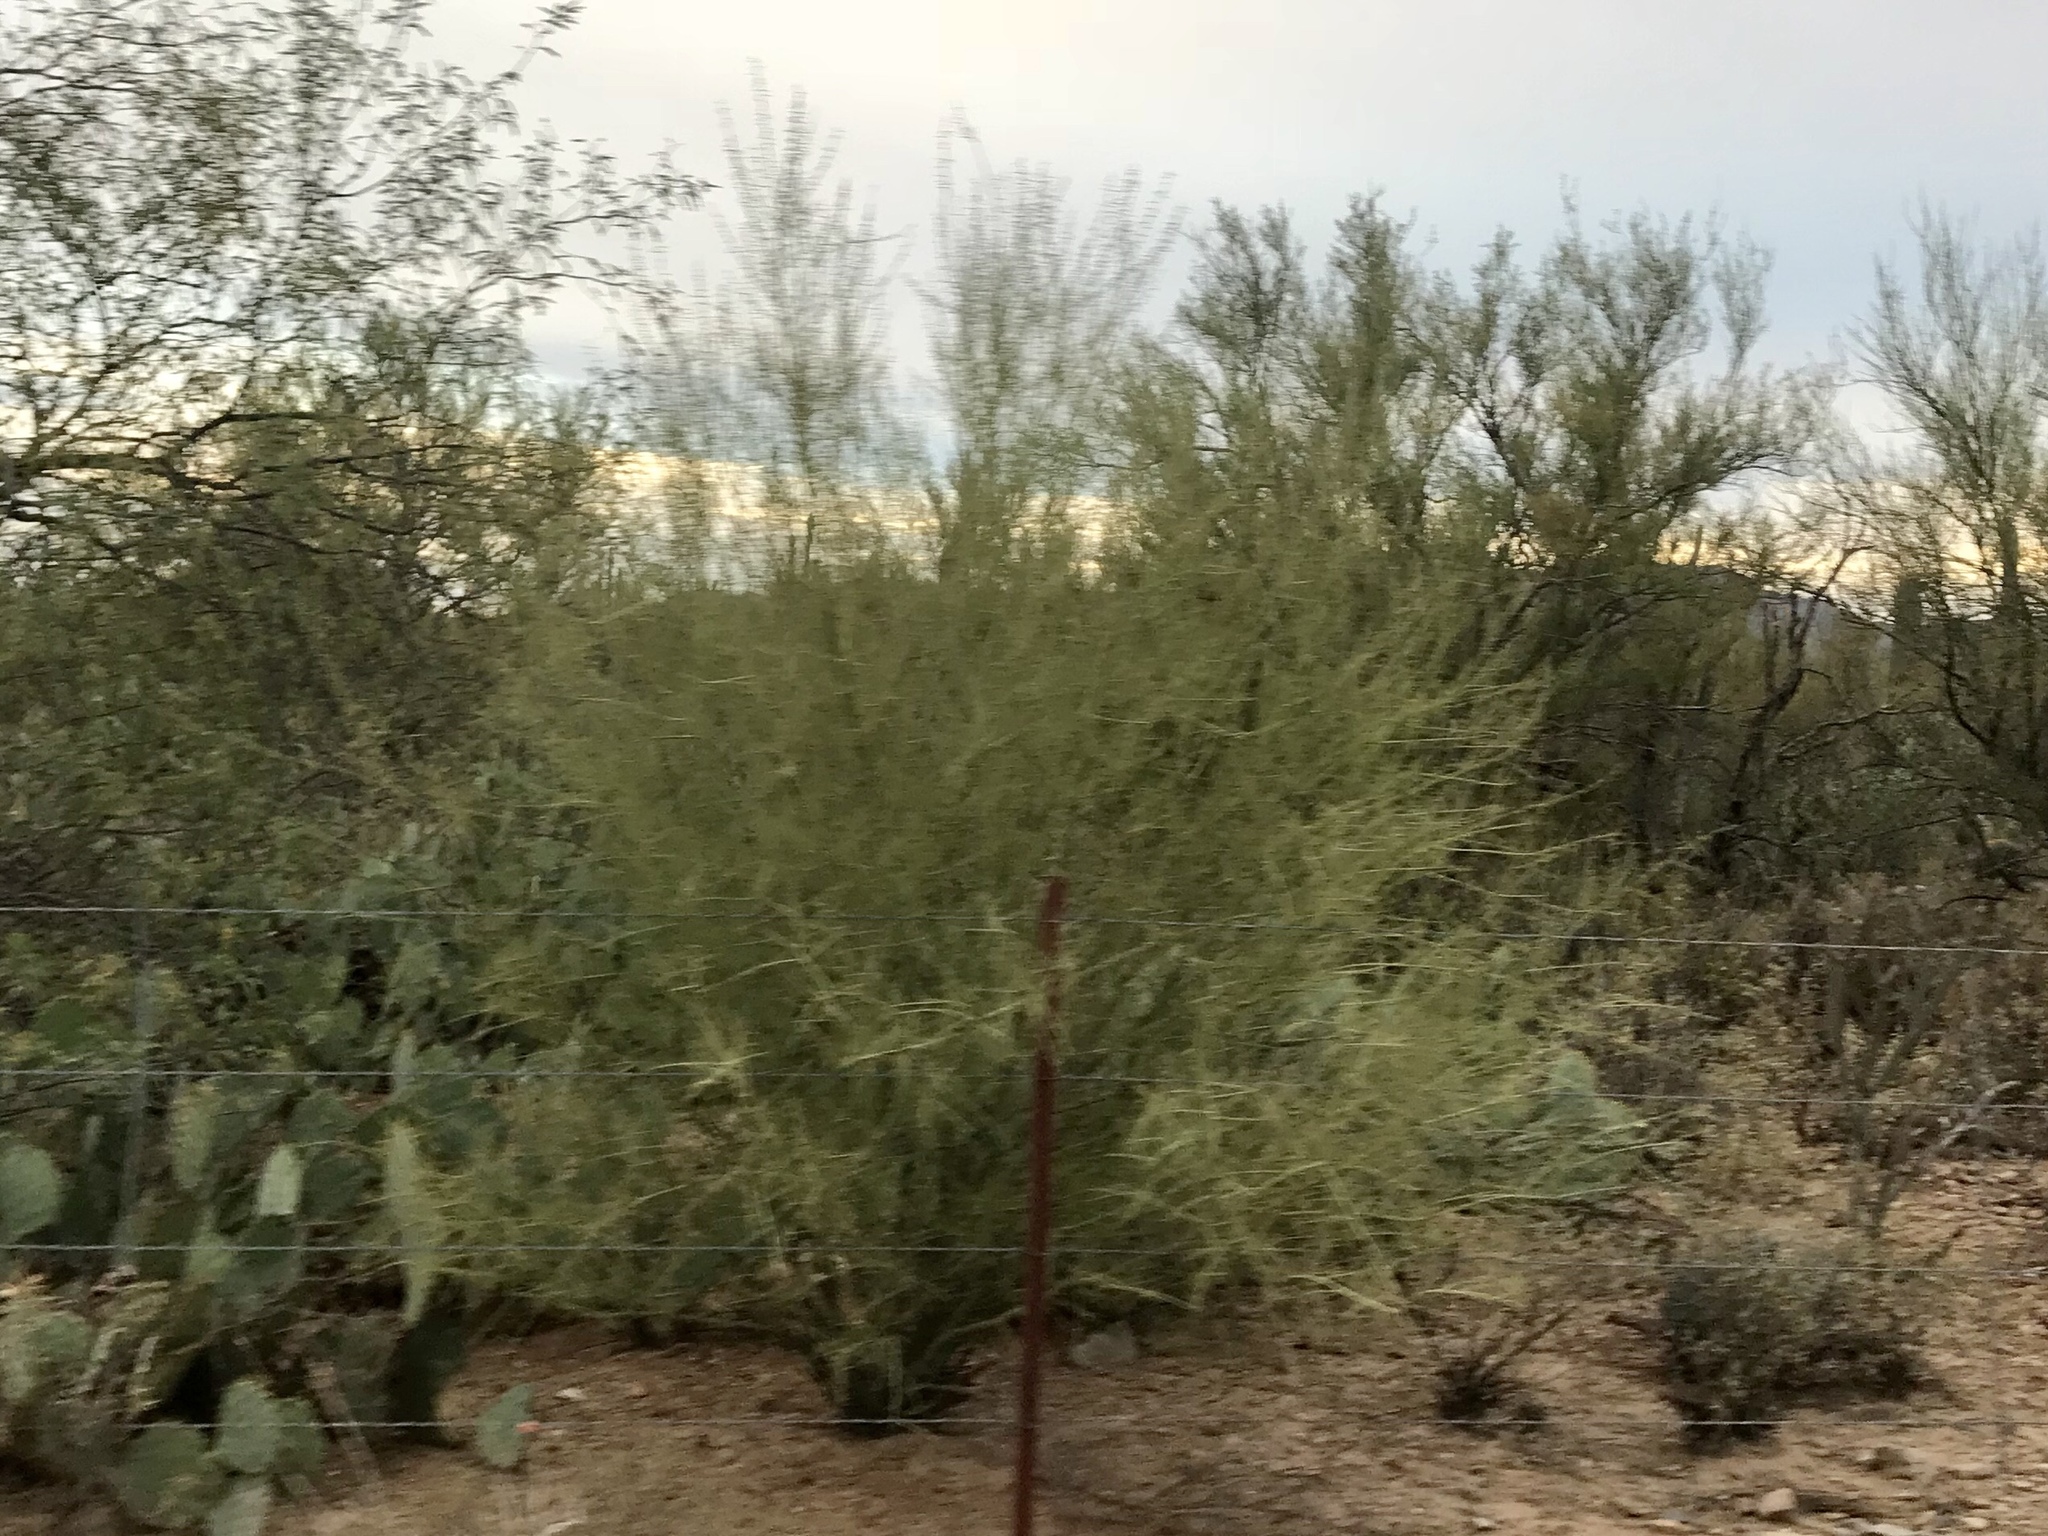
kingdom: Plantae
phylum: Tracheophyta
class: Magnoliopsida
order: Fabales
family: Fabaceae
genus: Parkinsonia
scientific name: Parkinsonia microphylla
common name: Yellow paloverde
